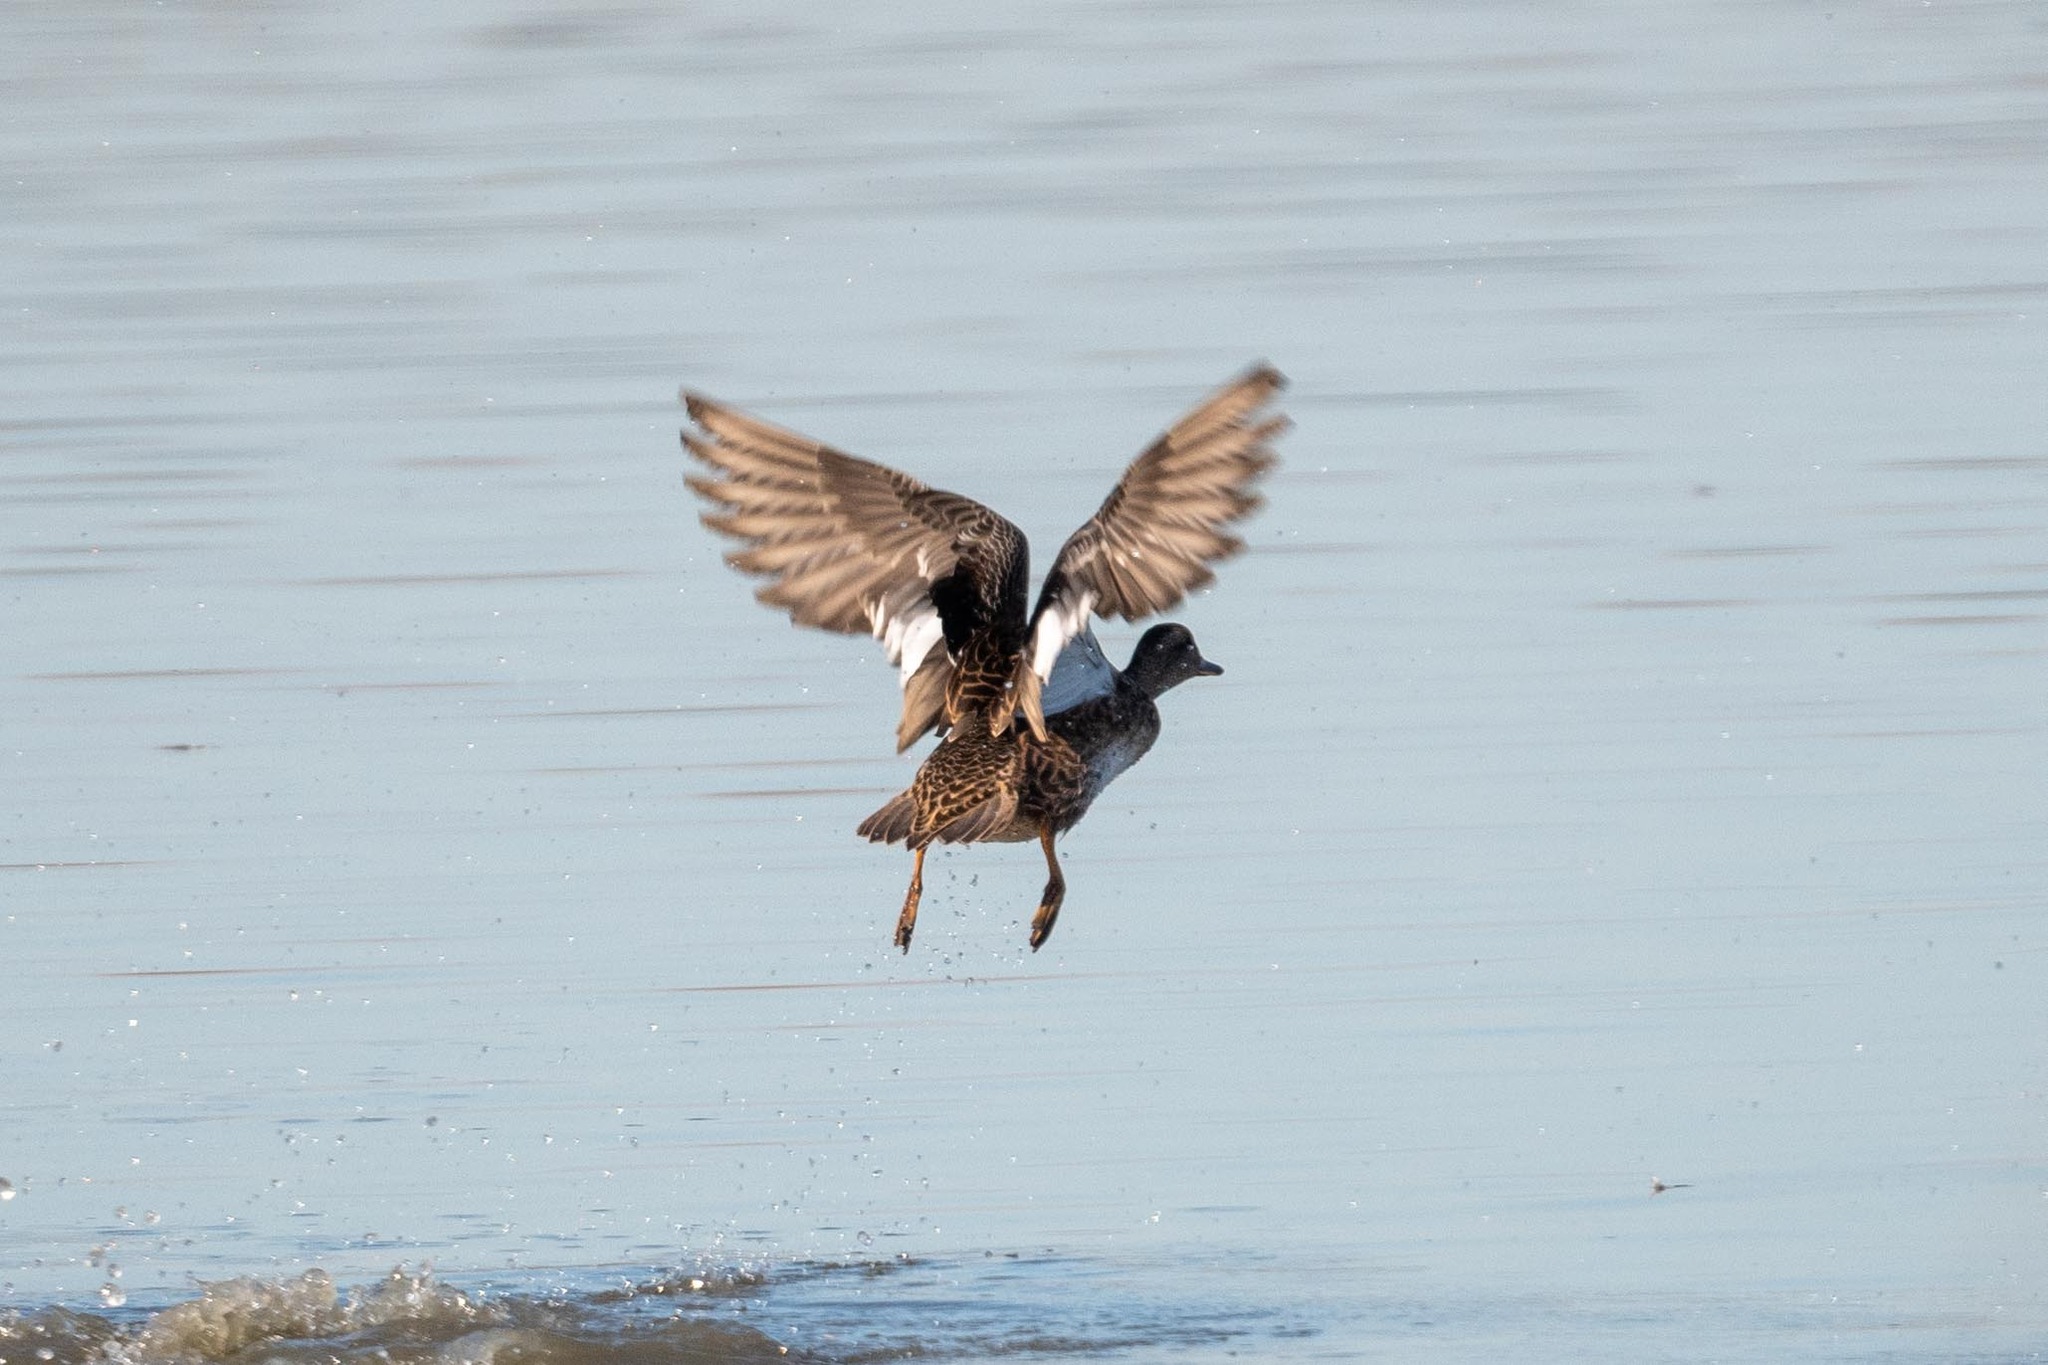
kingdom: Animalia
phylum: Chordata
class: Aves
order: Anseriformes
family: Anatidae
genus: Mareca
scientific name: Mareca strepera
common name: Gadwall
